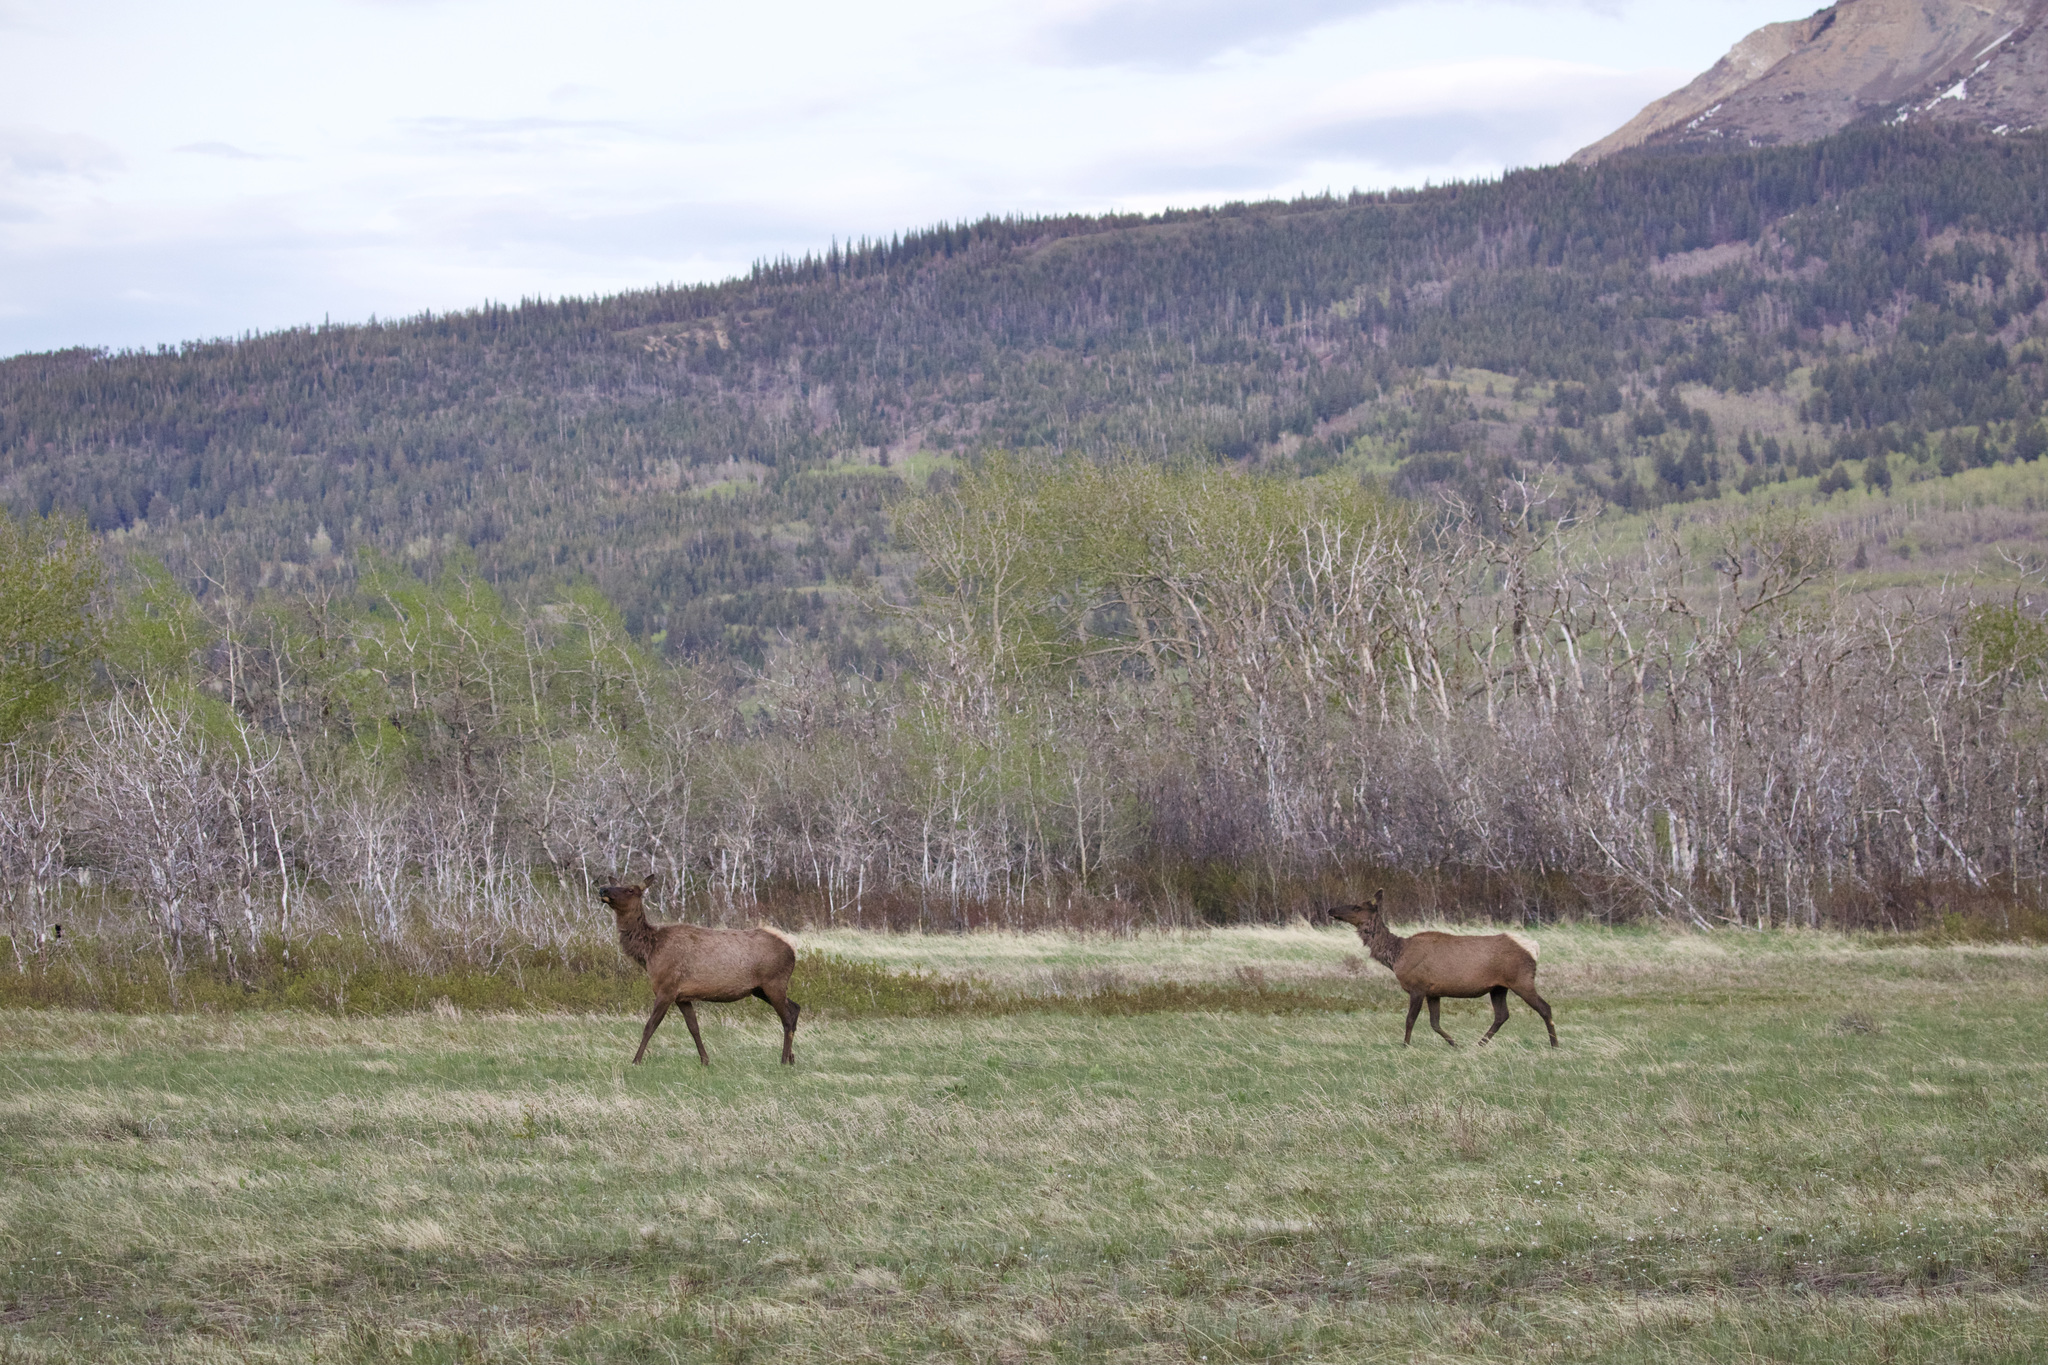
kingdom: Animalia
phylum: Chordata
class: Mammalia
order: Artiodactyla
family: Cervidae
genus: Cervus
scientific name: Cervus elaphus
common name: Red deer
